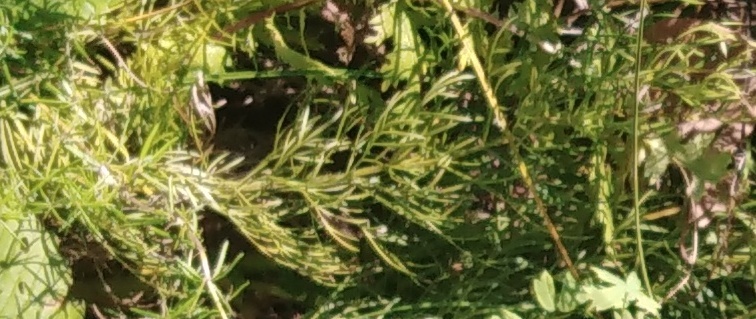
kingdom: Plantae
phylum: Tracheophyta
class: Magnoliopsida
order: Ranunculales
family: Ranunculaceae
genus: Adonis
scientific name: Adonis vernalis
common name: Yellow pheasants-eye
